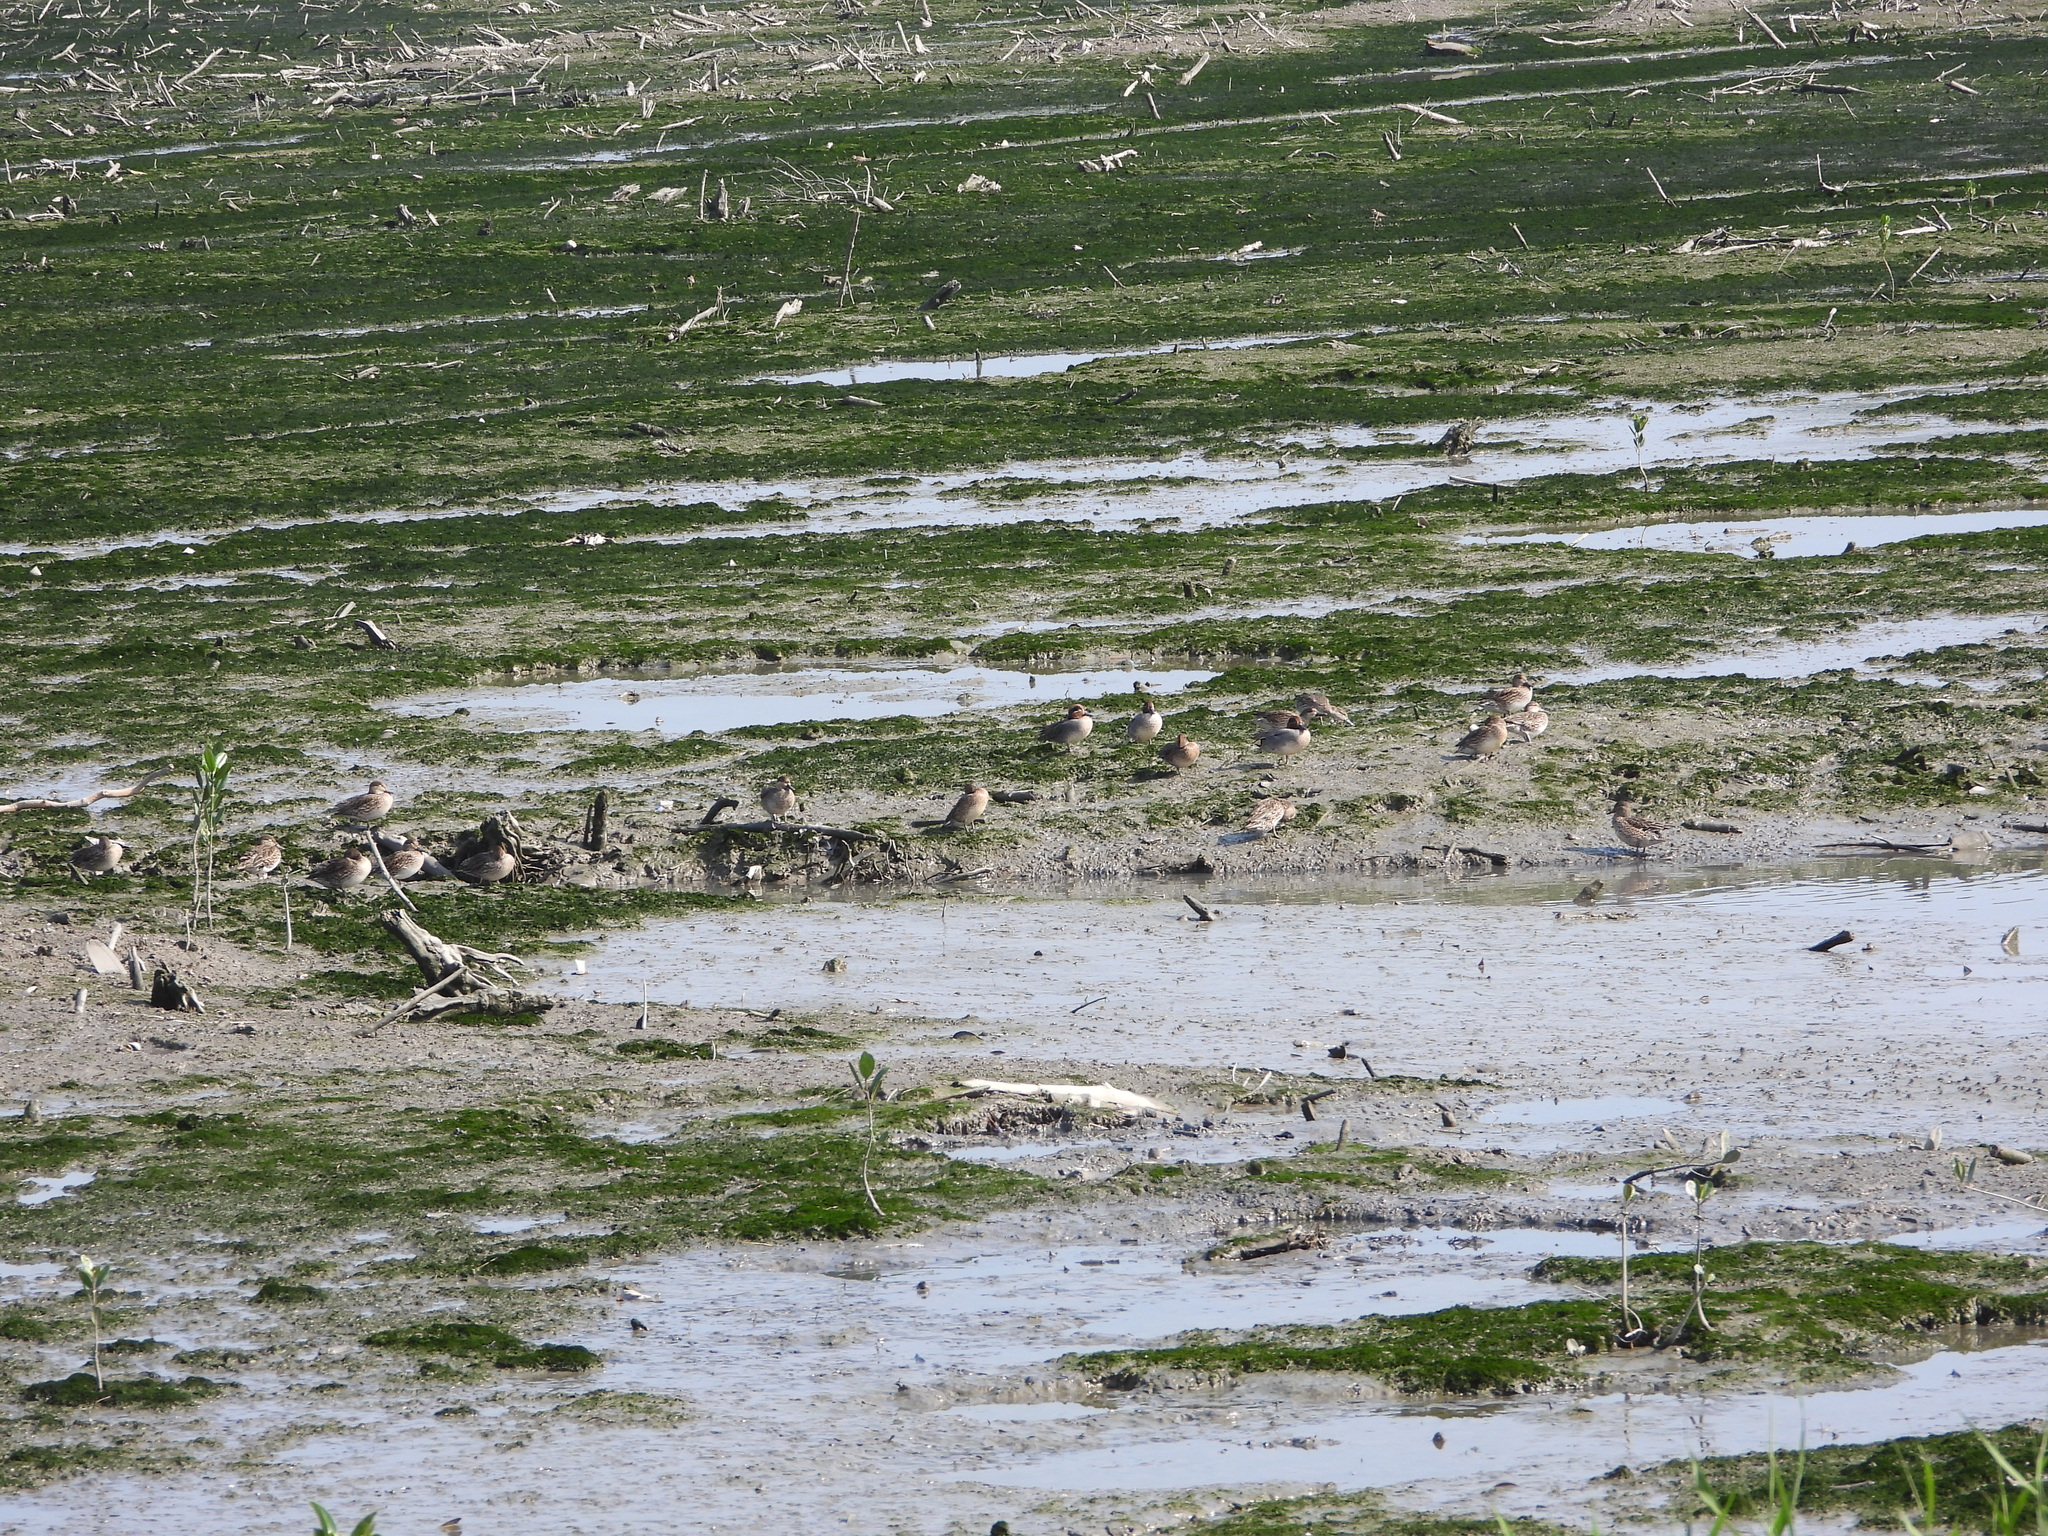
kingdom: Animalia
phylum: Chordata
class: Aves
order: Anseriformes
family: Anatidae
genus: Anas
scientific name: Anas crecca
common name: Eurasian teal
